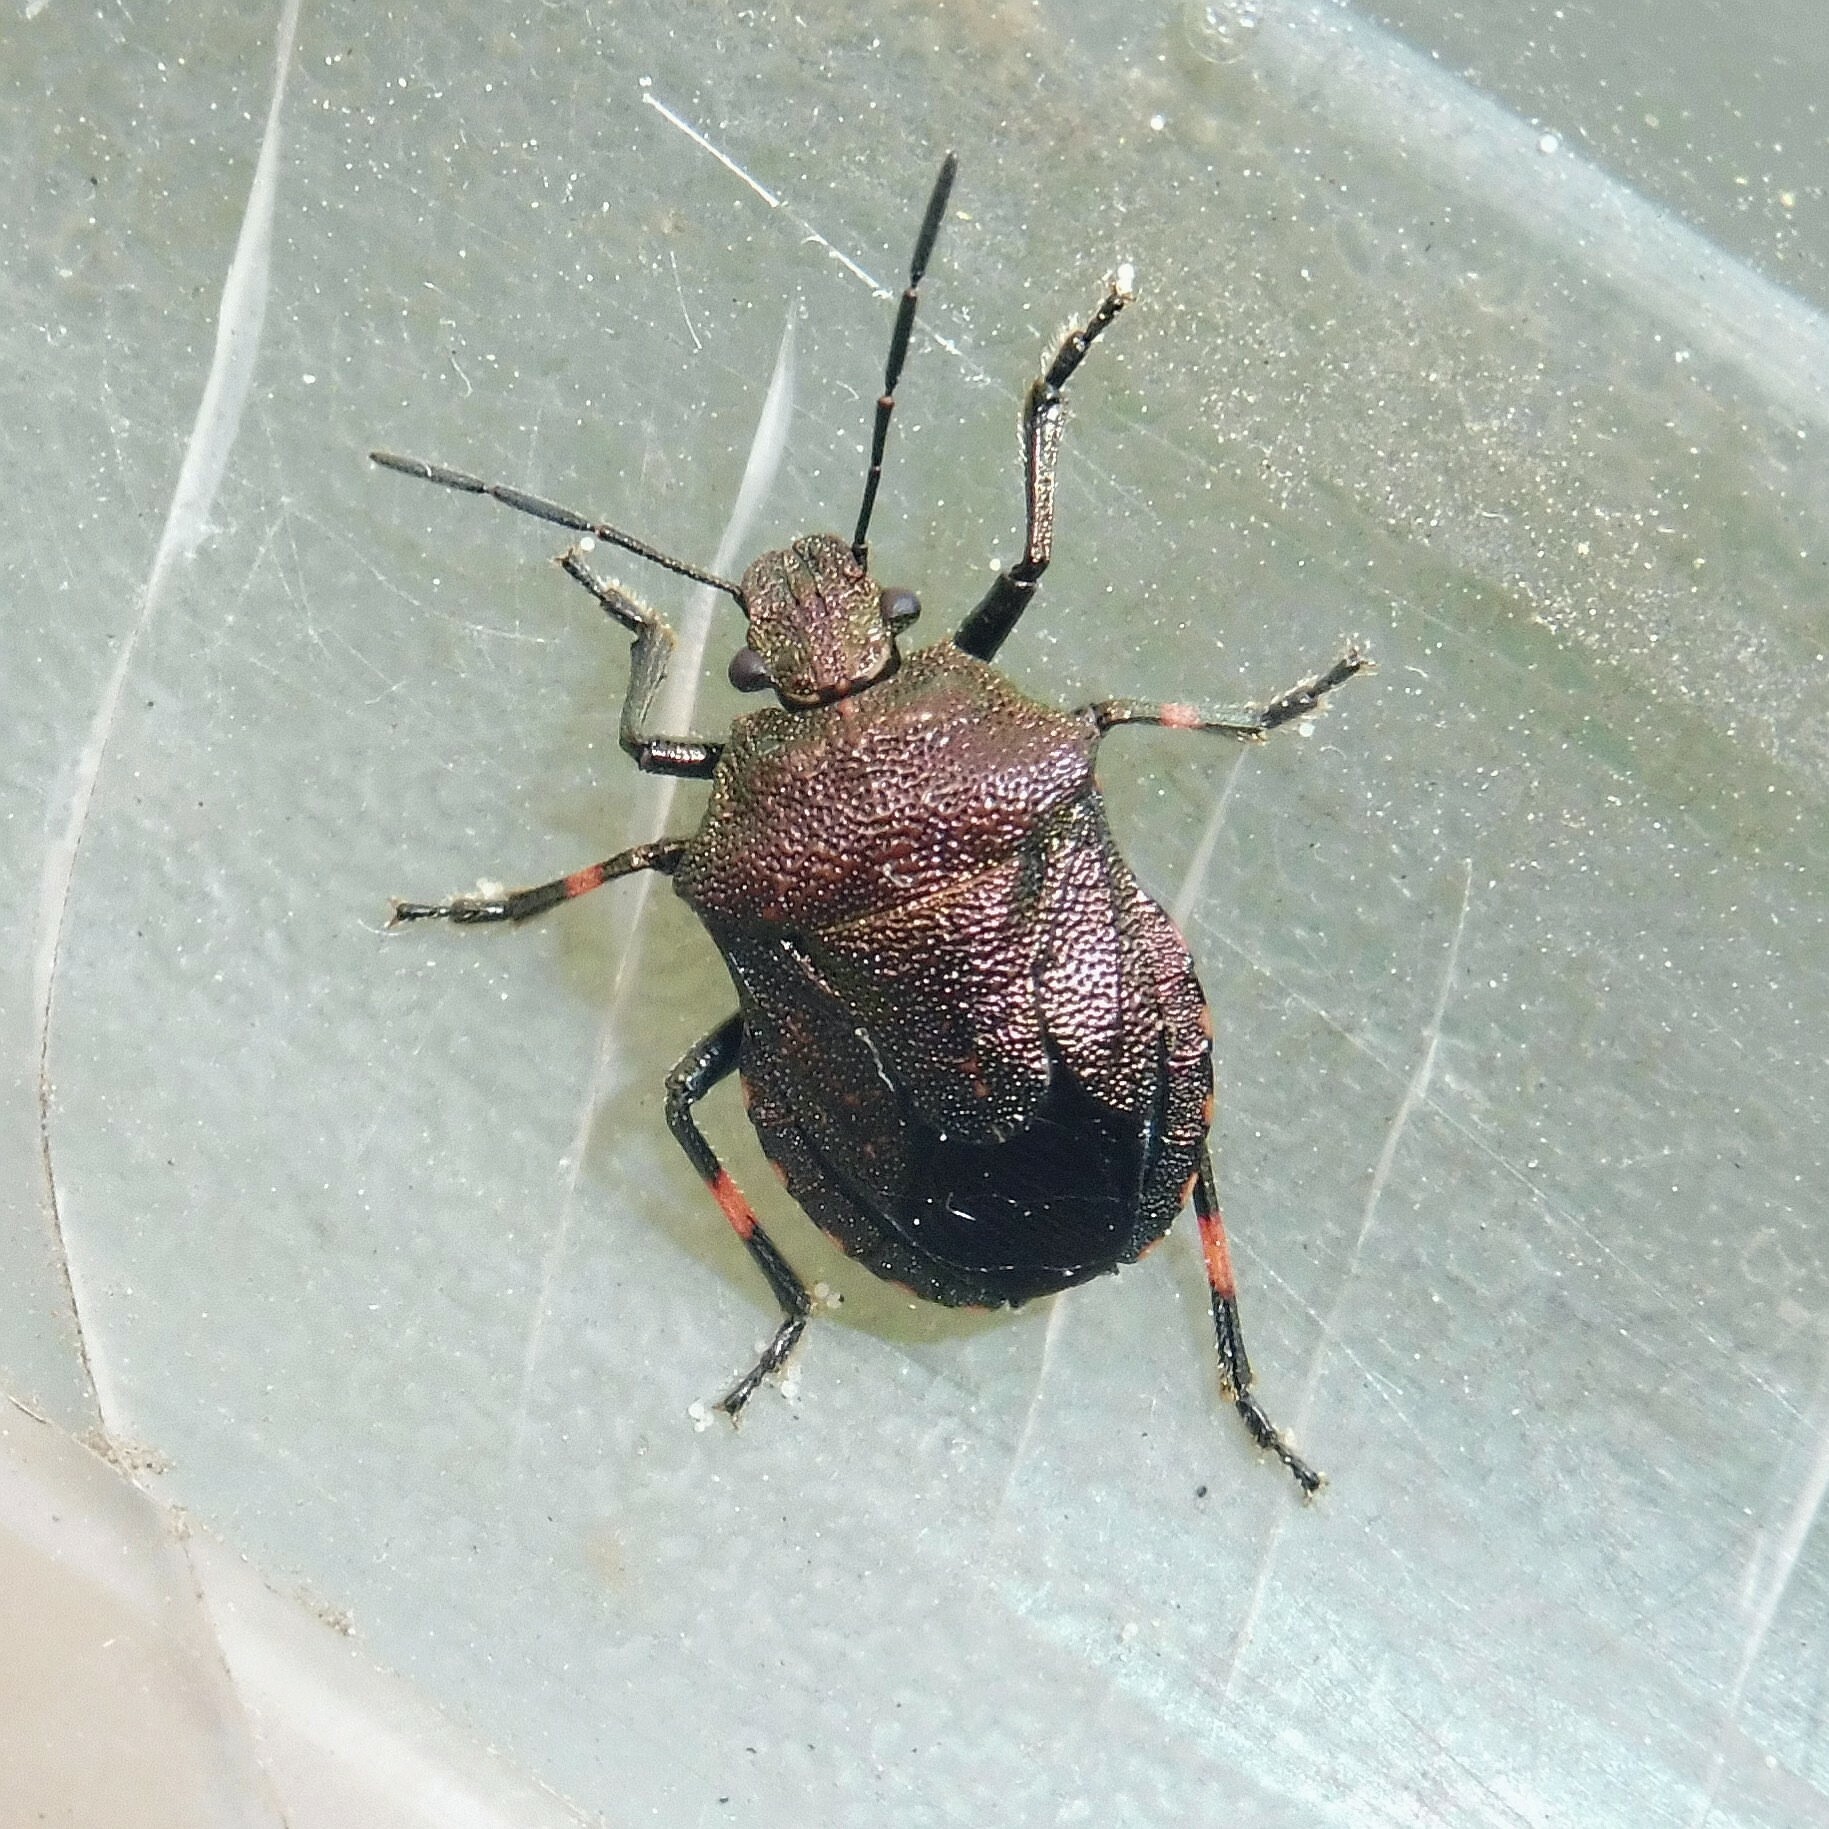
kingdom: Animalia
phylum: Arthropoda
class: Insecta
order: Hemiptera
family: Pentatomidae
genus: Rhacognathus
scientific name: Rhacognathus punctatus
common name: Heather bug
